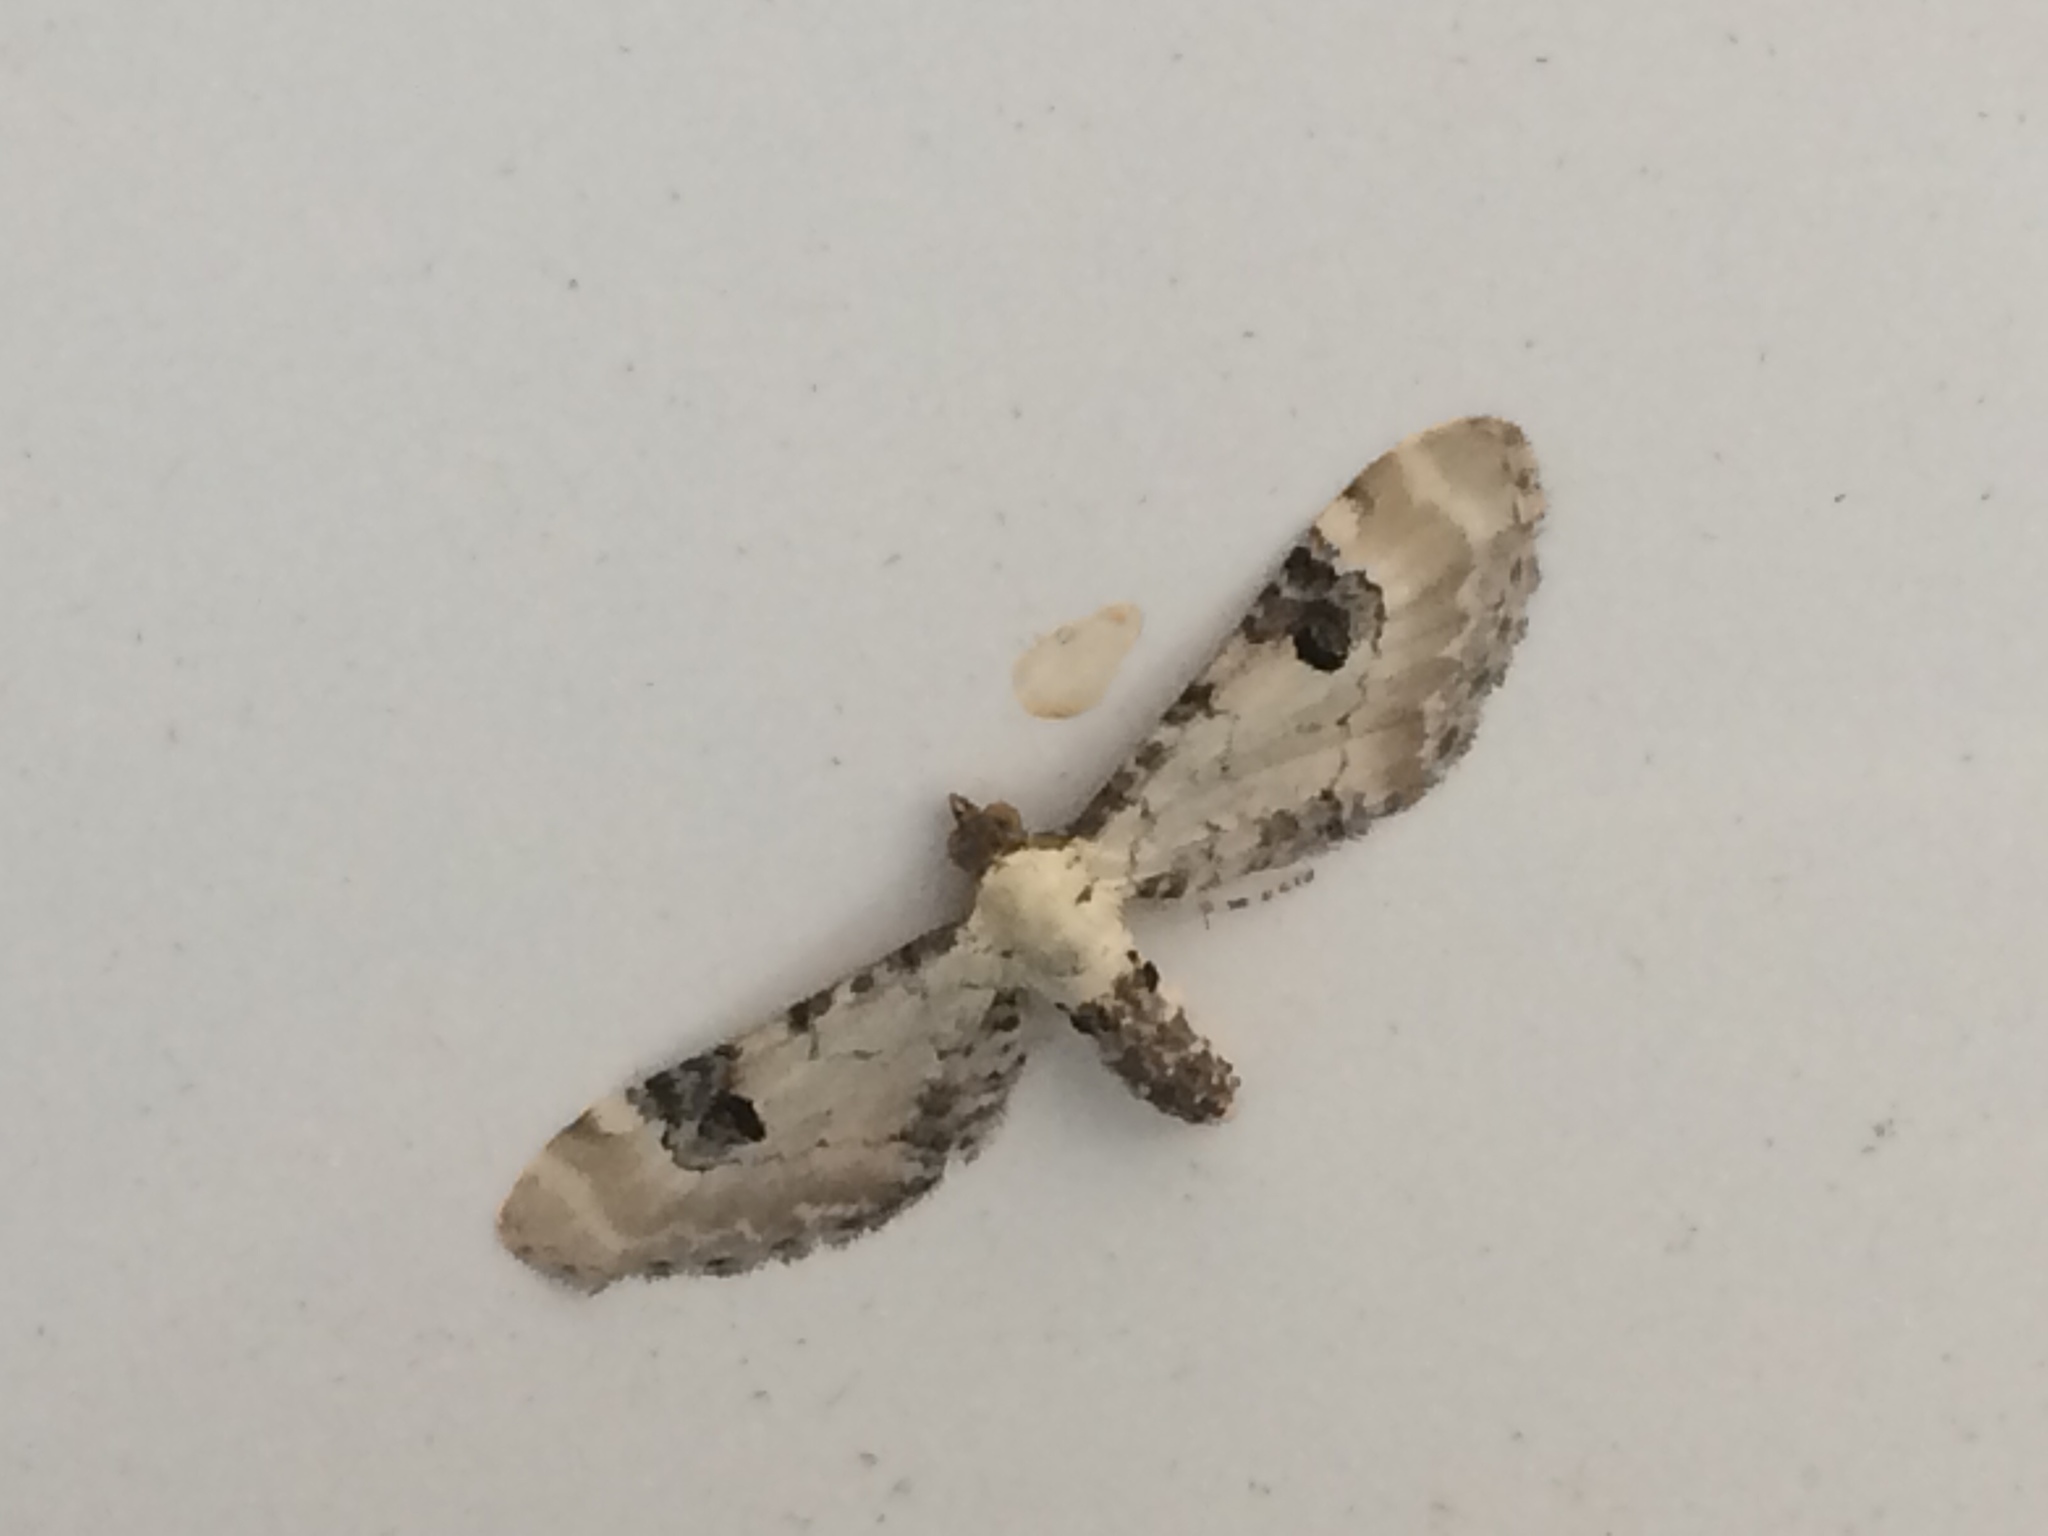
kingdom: Animalia
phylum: Arthropoda
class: Insecta
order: Lepidoptera
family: Geometridae
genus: Eupithecia
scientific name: Eupithecia centaureata
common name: Lime-speck pug
